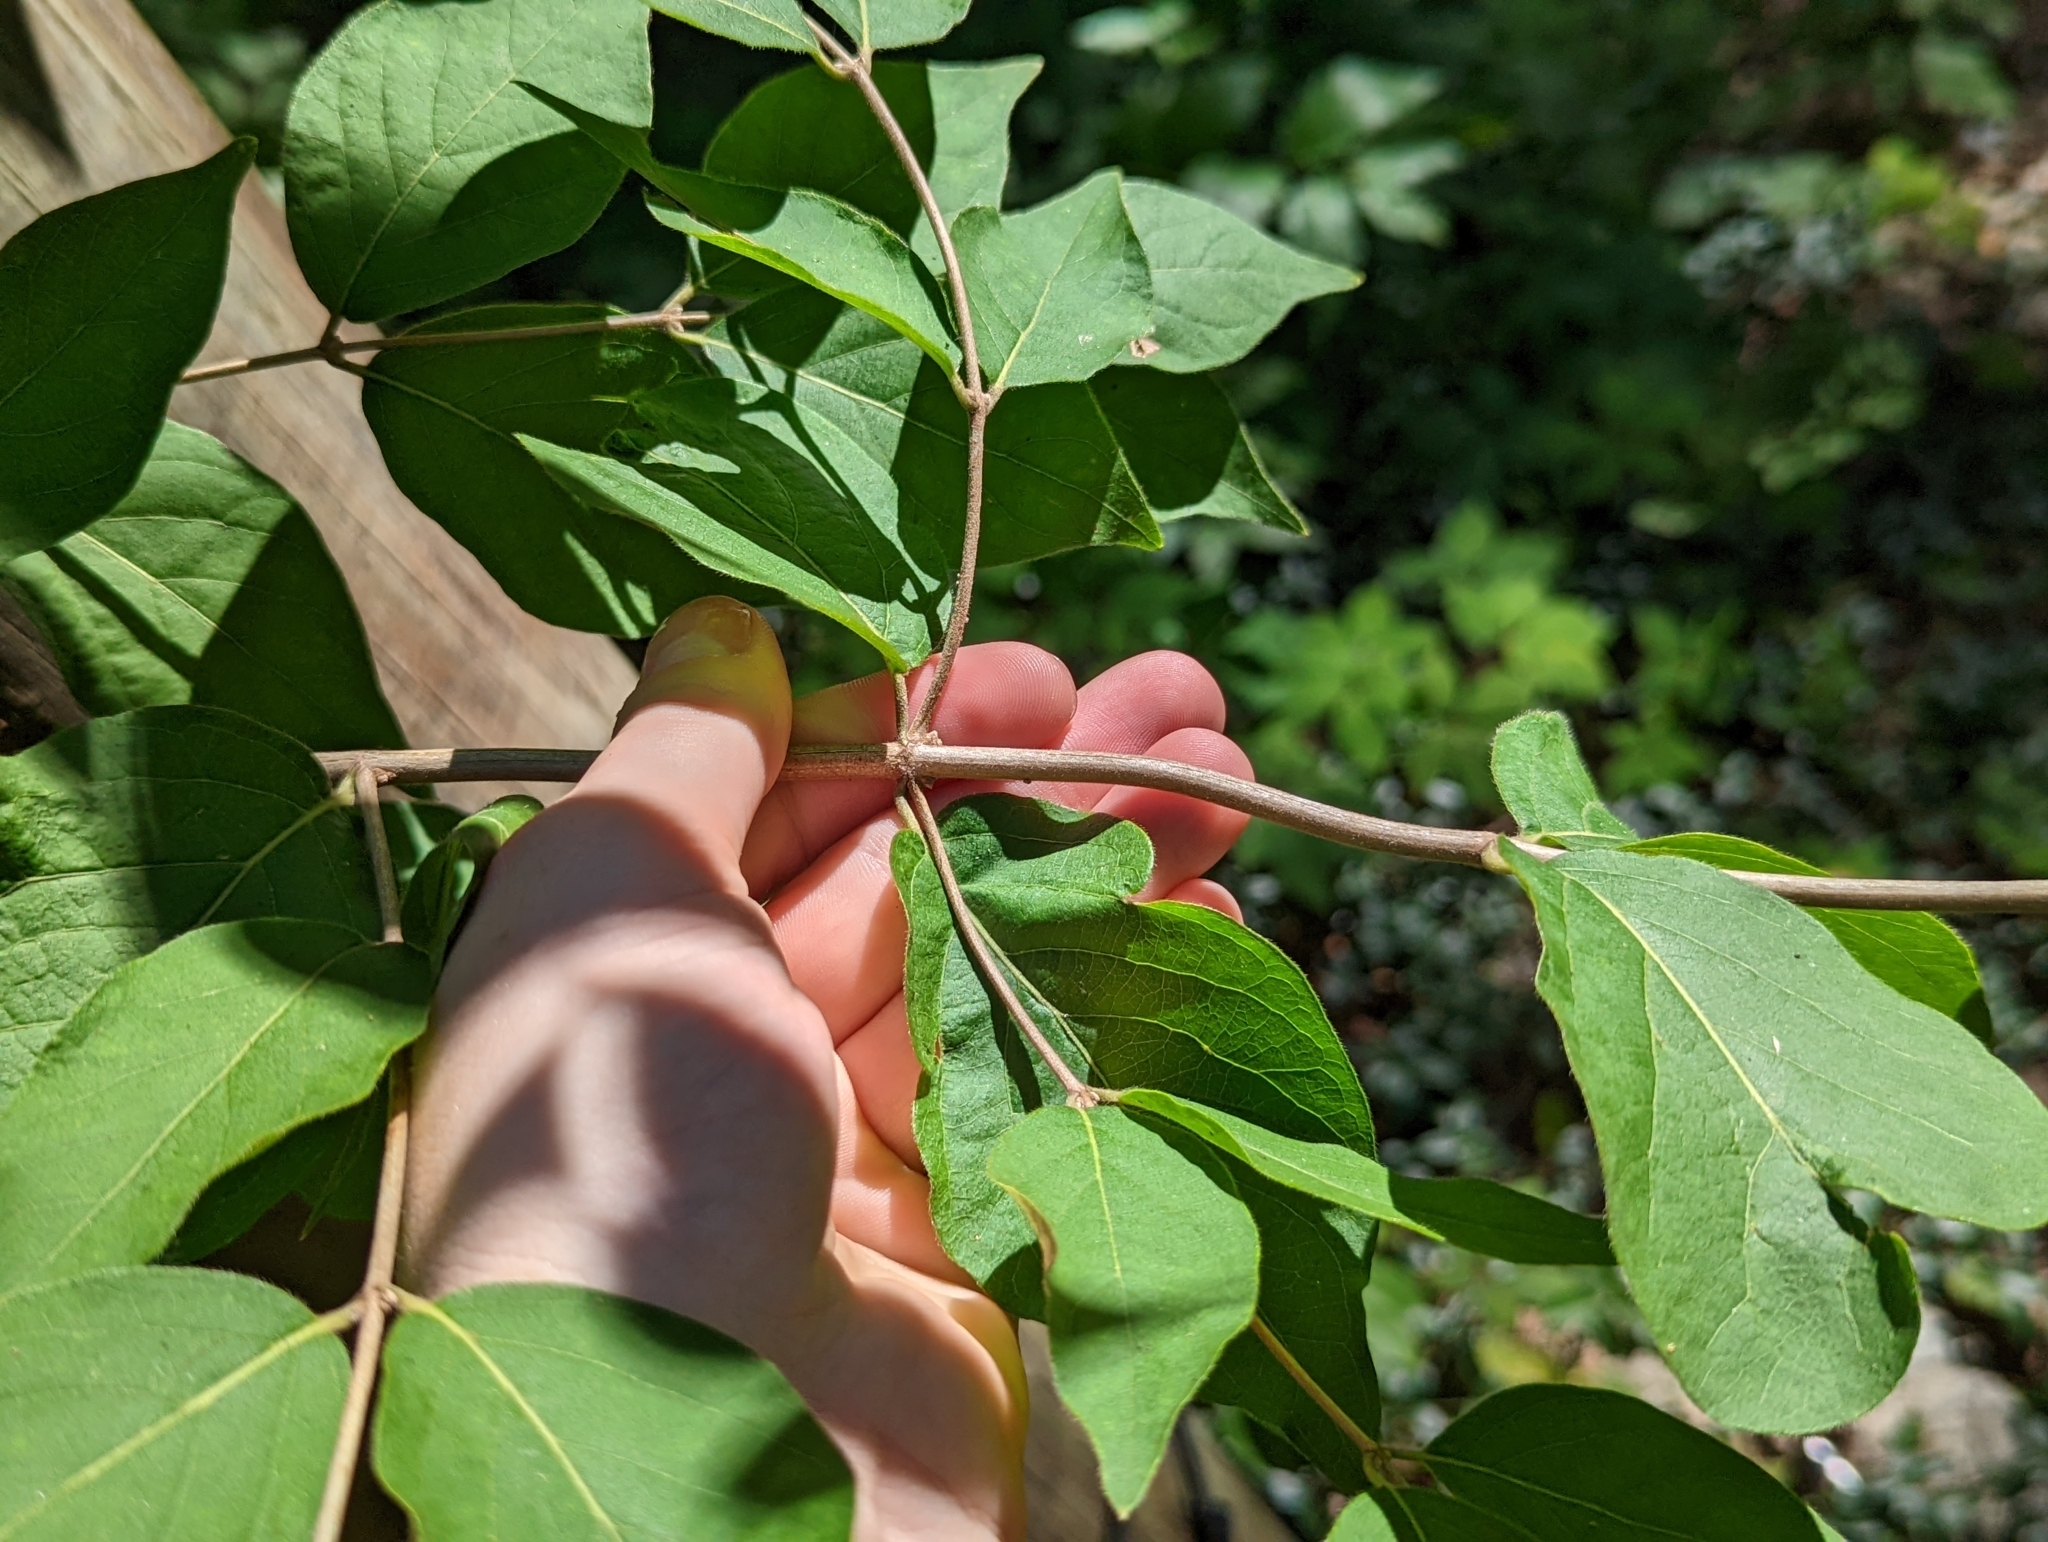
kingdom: Plantae
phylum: Tracheophyta
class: Magnoliopsida
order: Dipsacales
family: Caprifoliaceae
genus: Lonicera
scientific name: Lonicera maackii
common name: Amur honeysuckle
